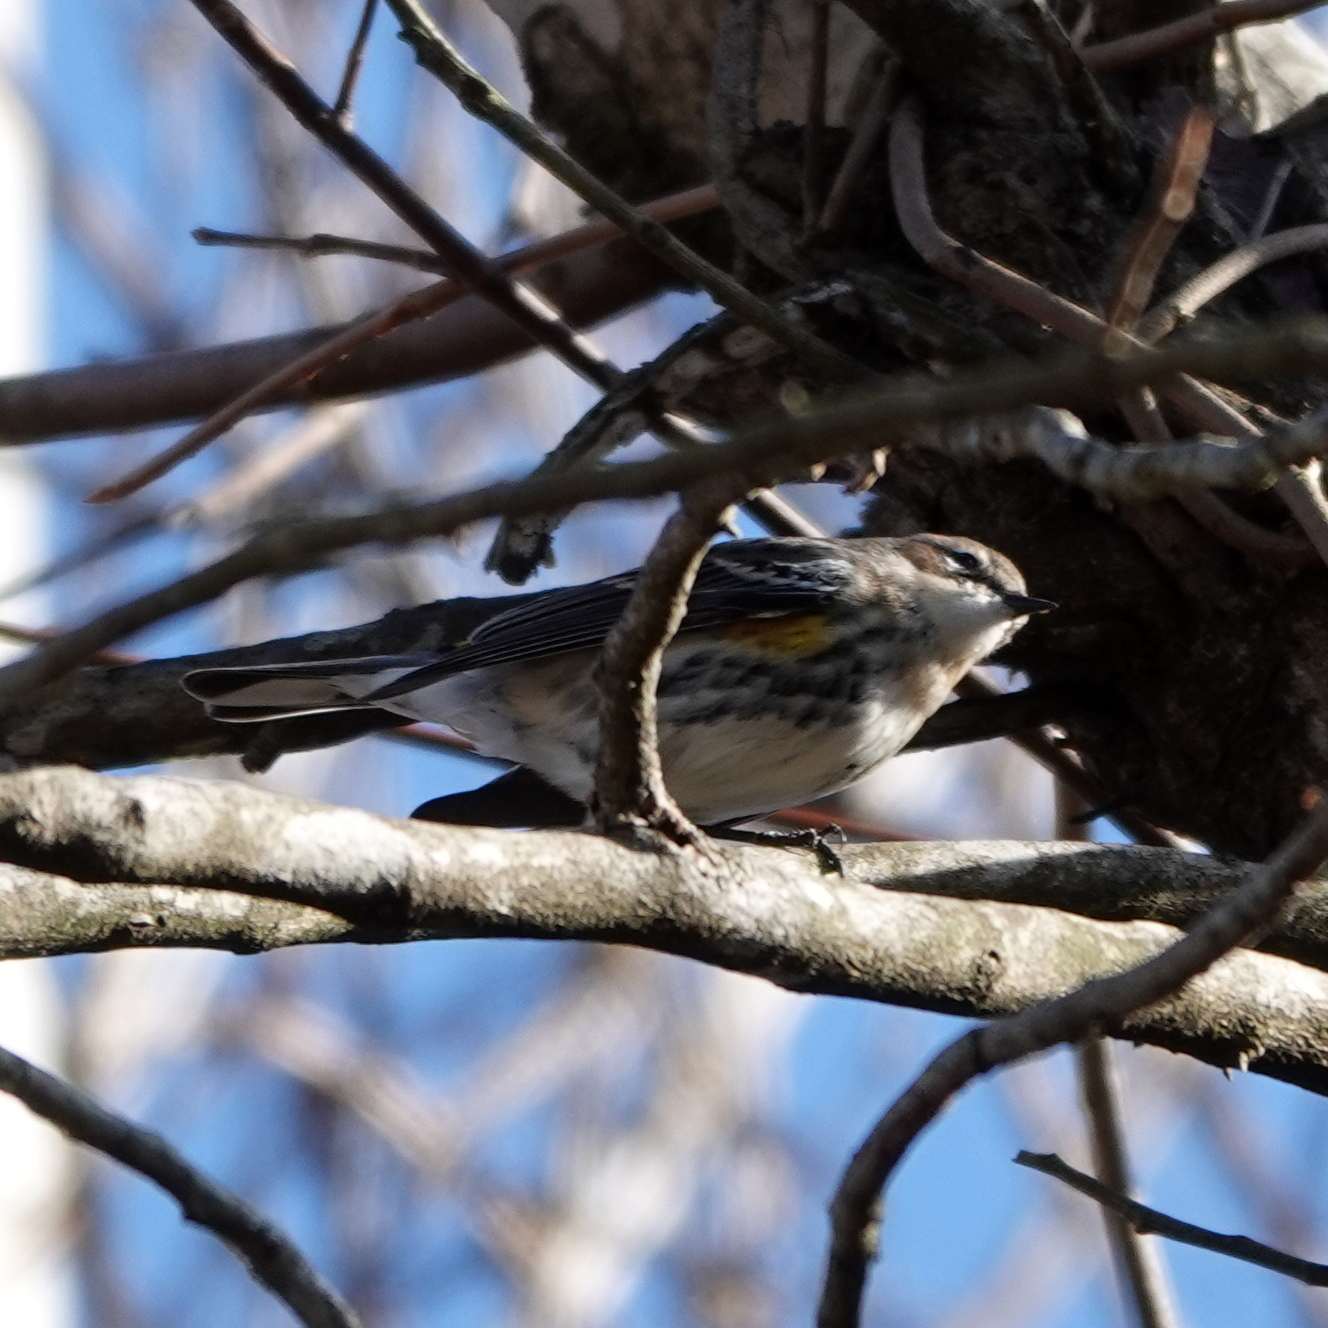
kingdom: Animalia
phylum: Chordata
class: Aves
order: Passeriformes
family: Parulidae
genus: Setophaga
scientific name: Setophaga coronata
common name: Myrtle warbler
